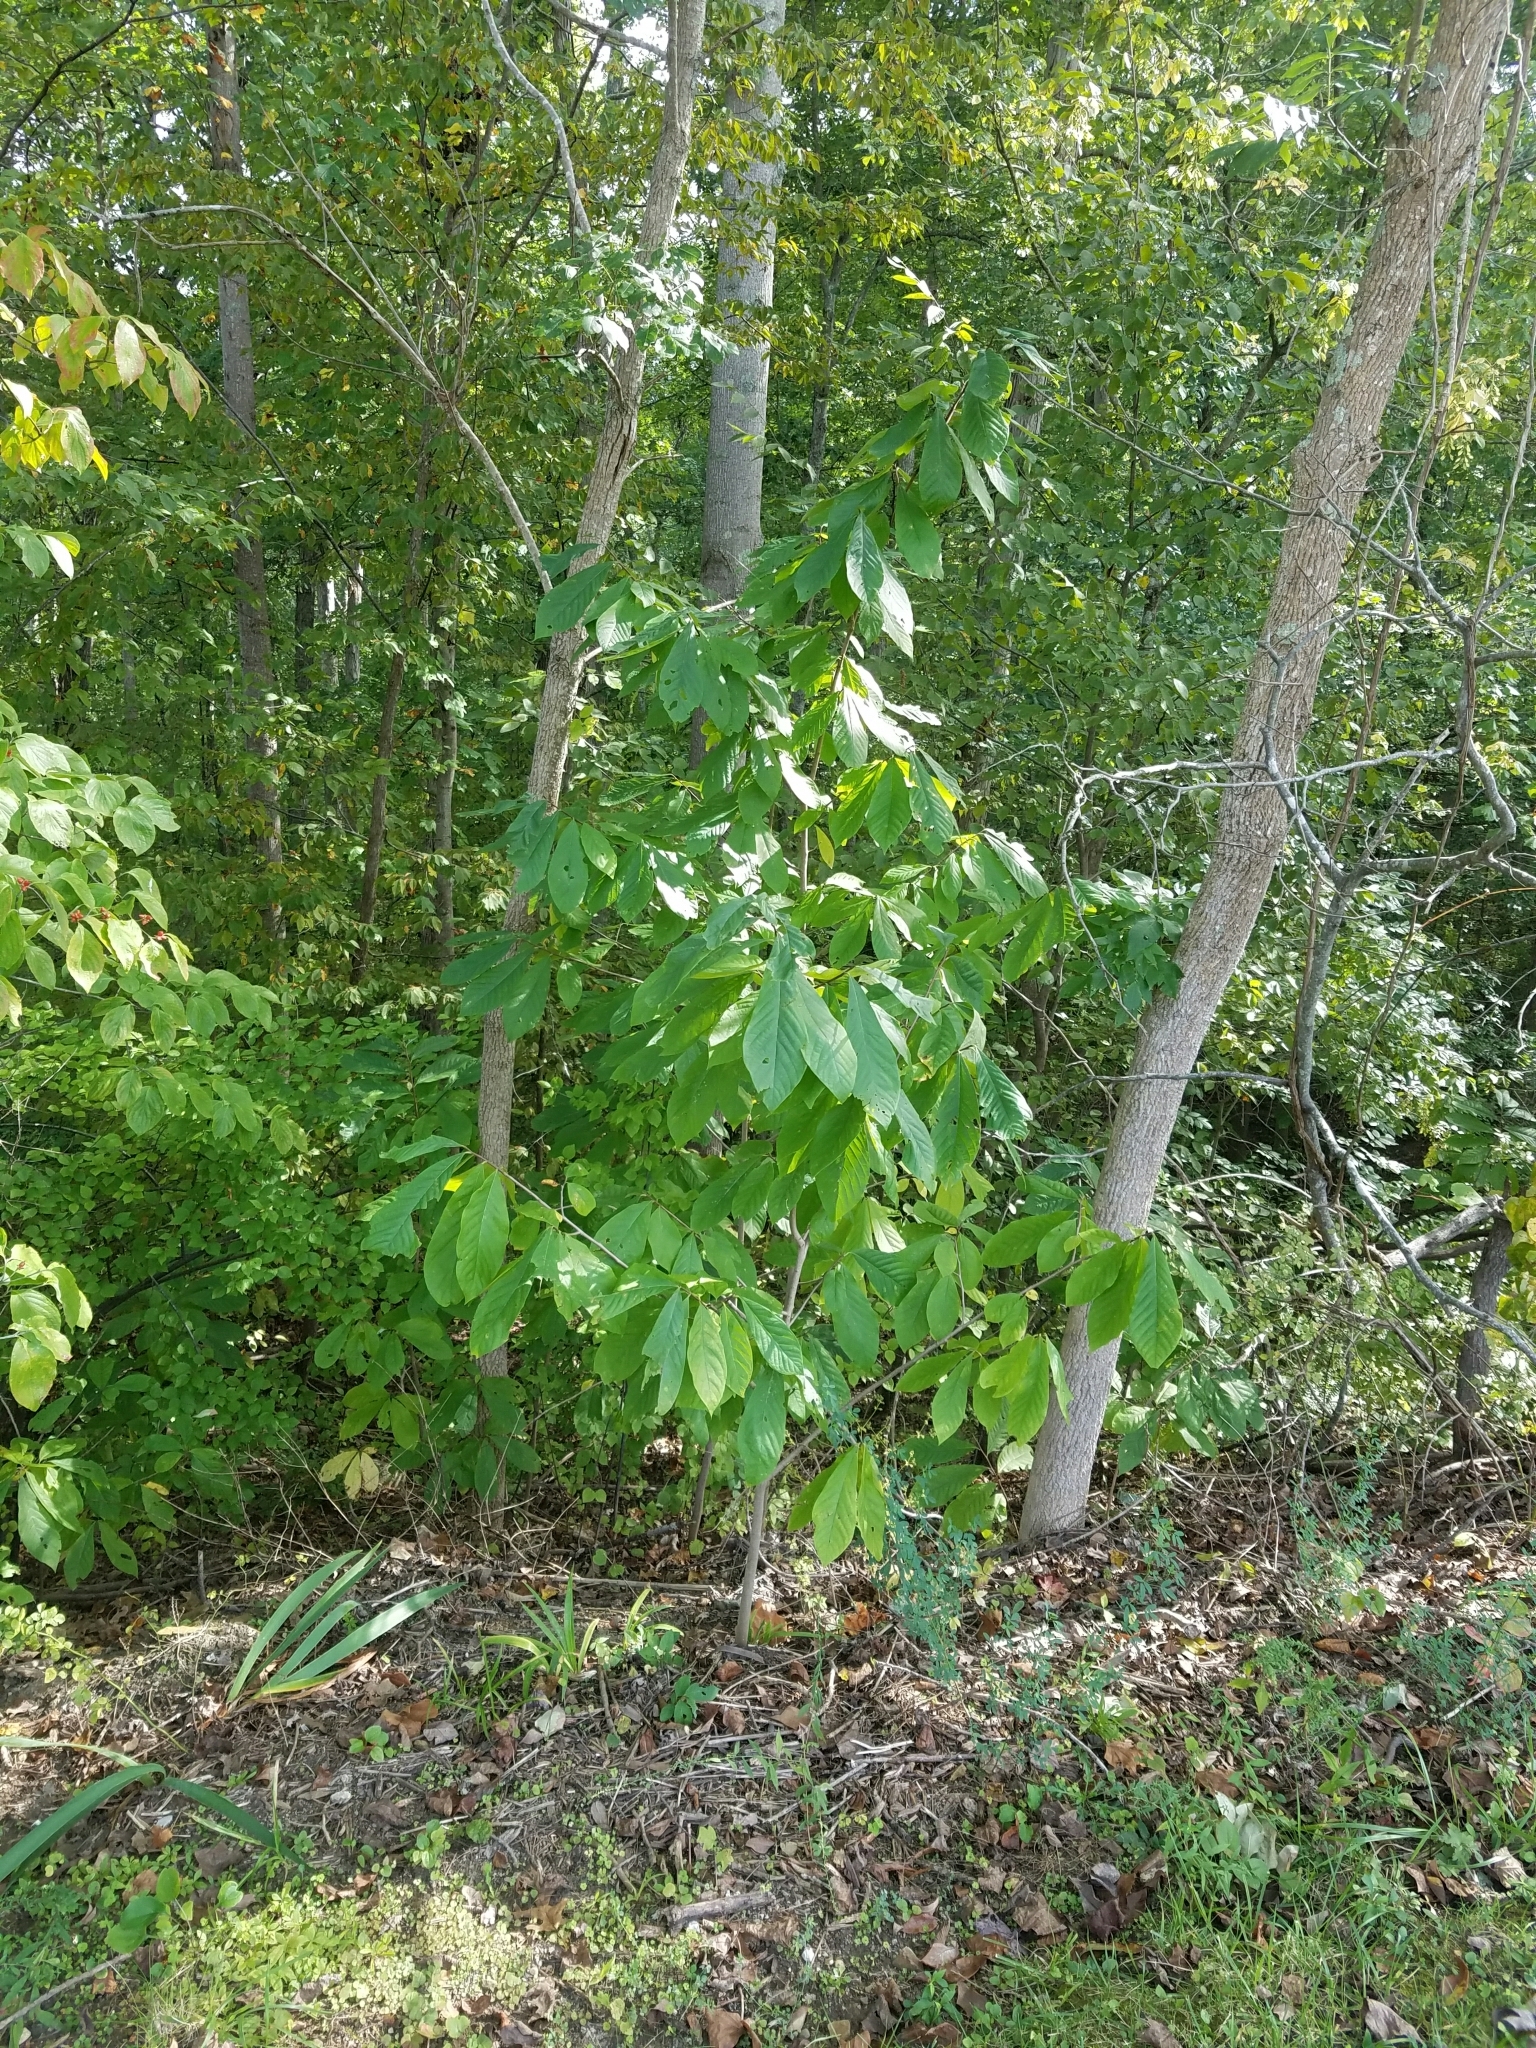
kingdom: Plantae
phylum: Tracheophyta
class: Magnoliopsida
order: Magnoliales
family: Annonaceae
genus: Asimina
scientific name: Asimina triloba
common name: Dog-banana
